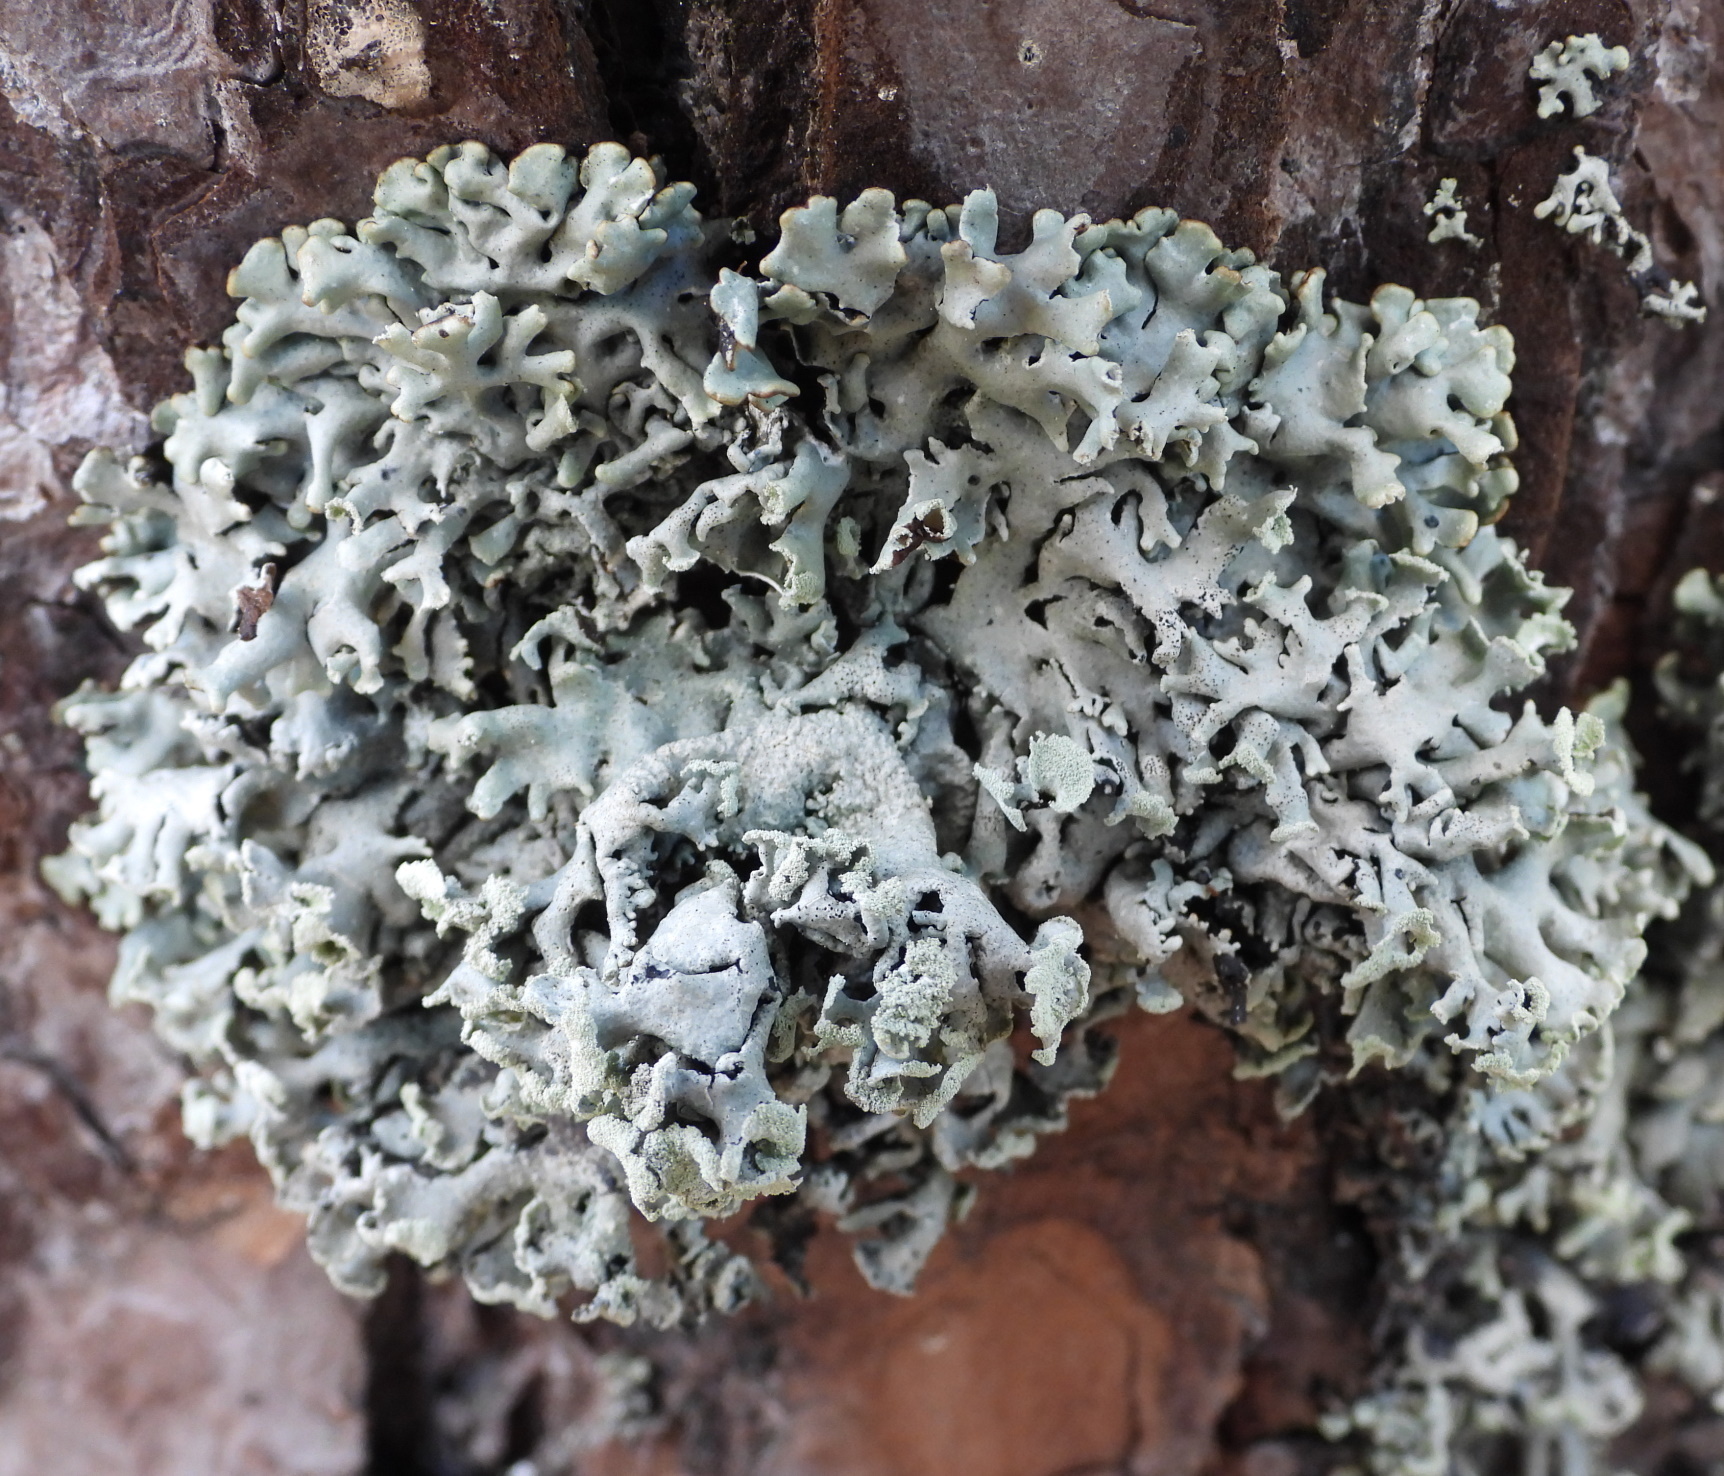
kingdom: Fungi
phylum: Ascomycota
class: Lecanoromycetes
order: Lecanorales
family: Parmeliaceae
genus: Hypogymnia
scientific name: Hypogymnia physodes
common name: Dark crottle
